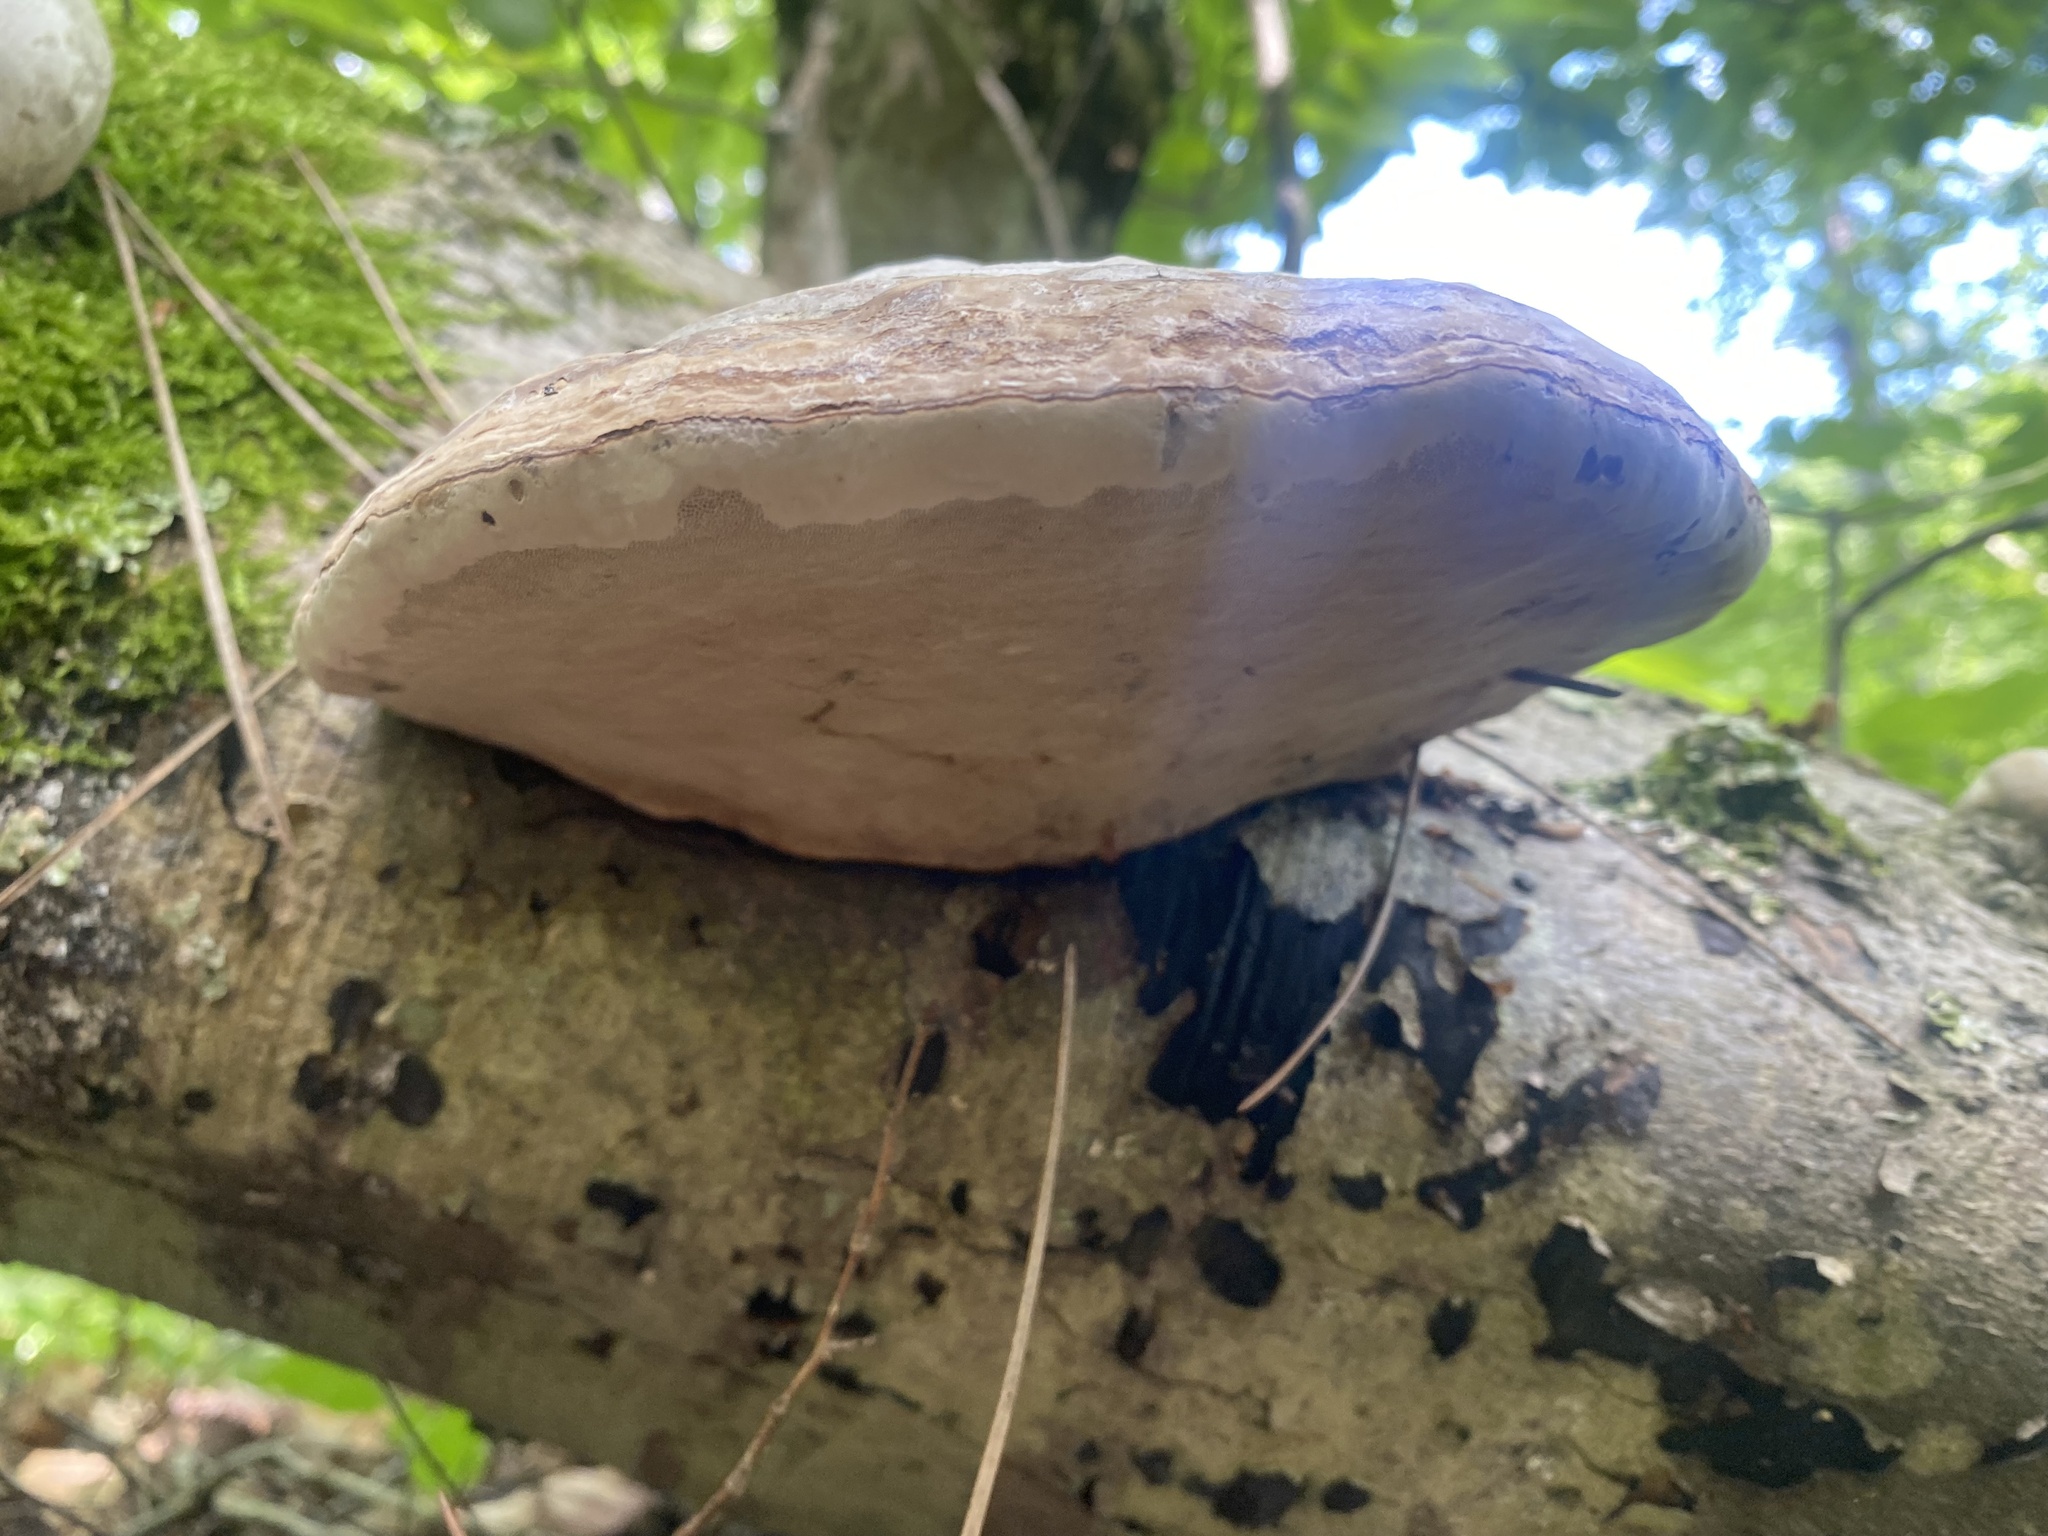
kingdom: Fungi
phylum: Basidiomycota
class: Agaricomycetes
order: Polyporales
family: Polyporaceae
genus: Fomes
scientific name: Fomes fomentarius
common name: Hoof fungus
